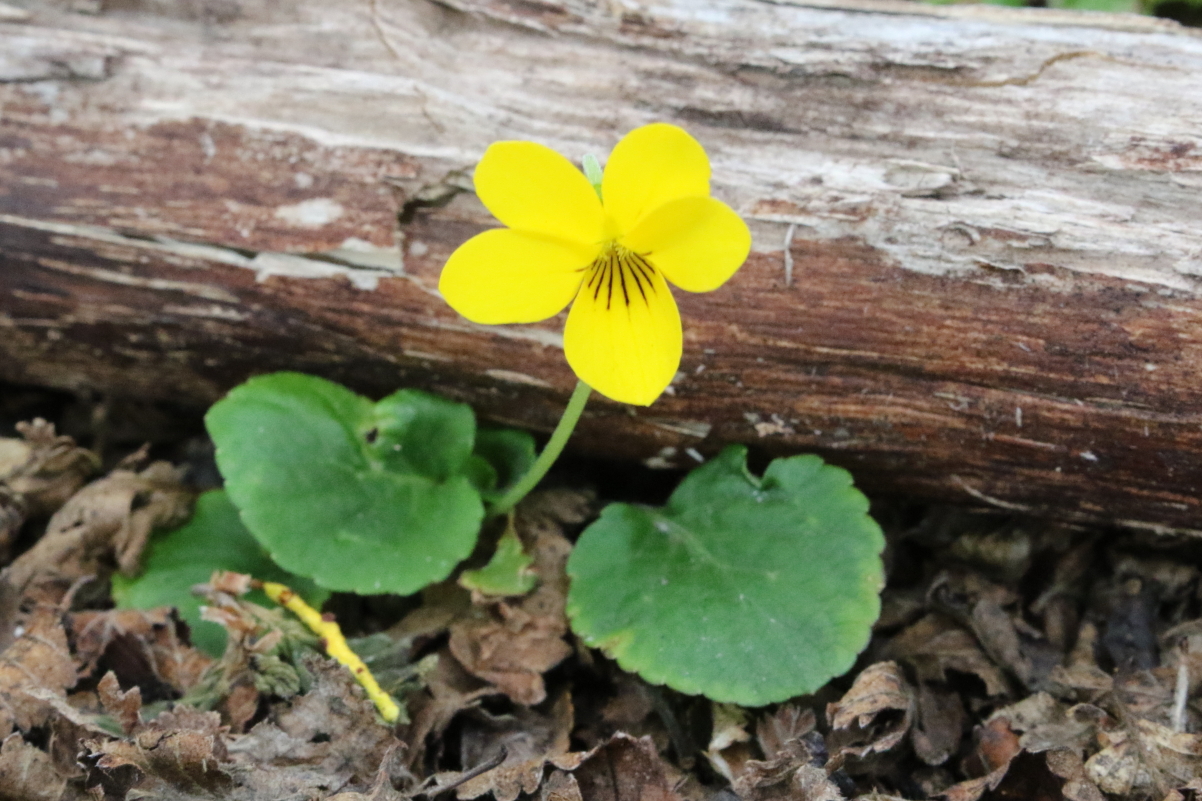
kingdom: Plantae
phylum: Tracheophyta
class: Magnoliopsida
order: Malpighiales
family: Violaceae
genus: Viola
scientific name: Viola reichei
